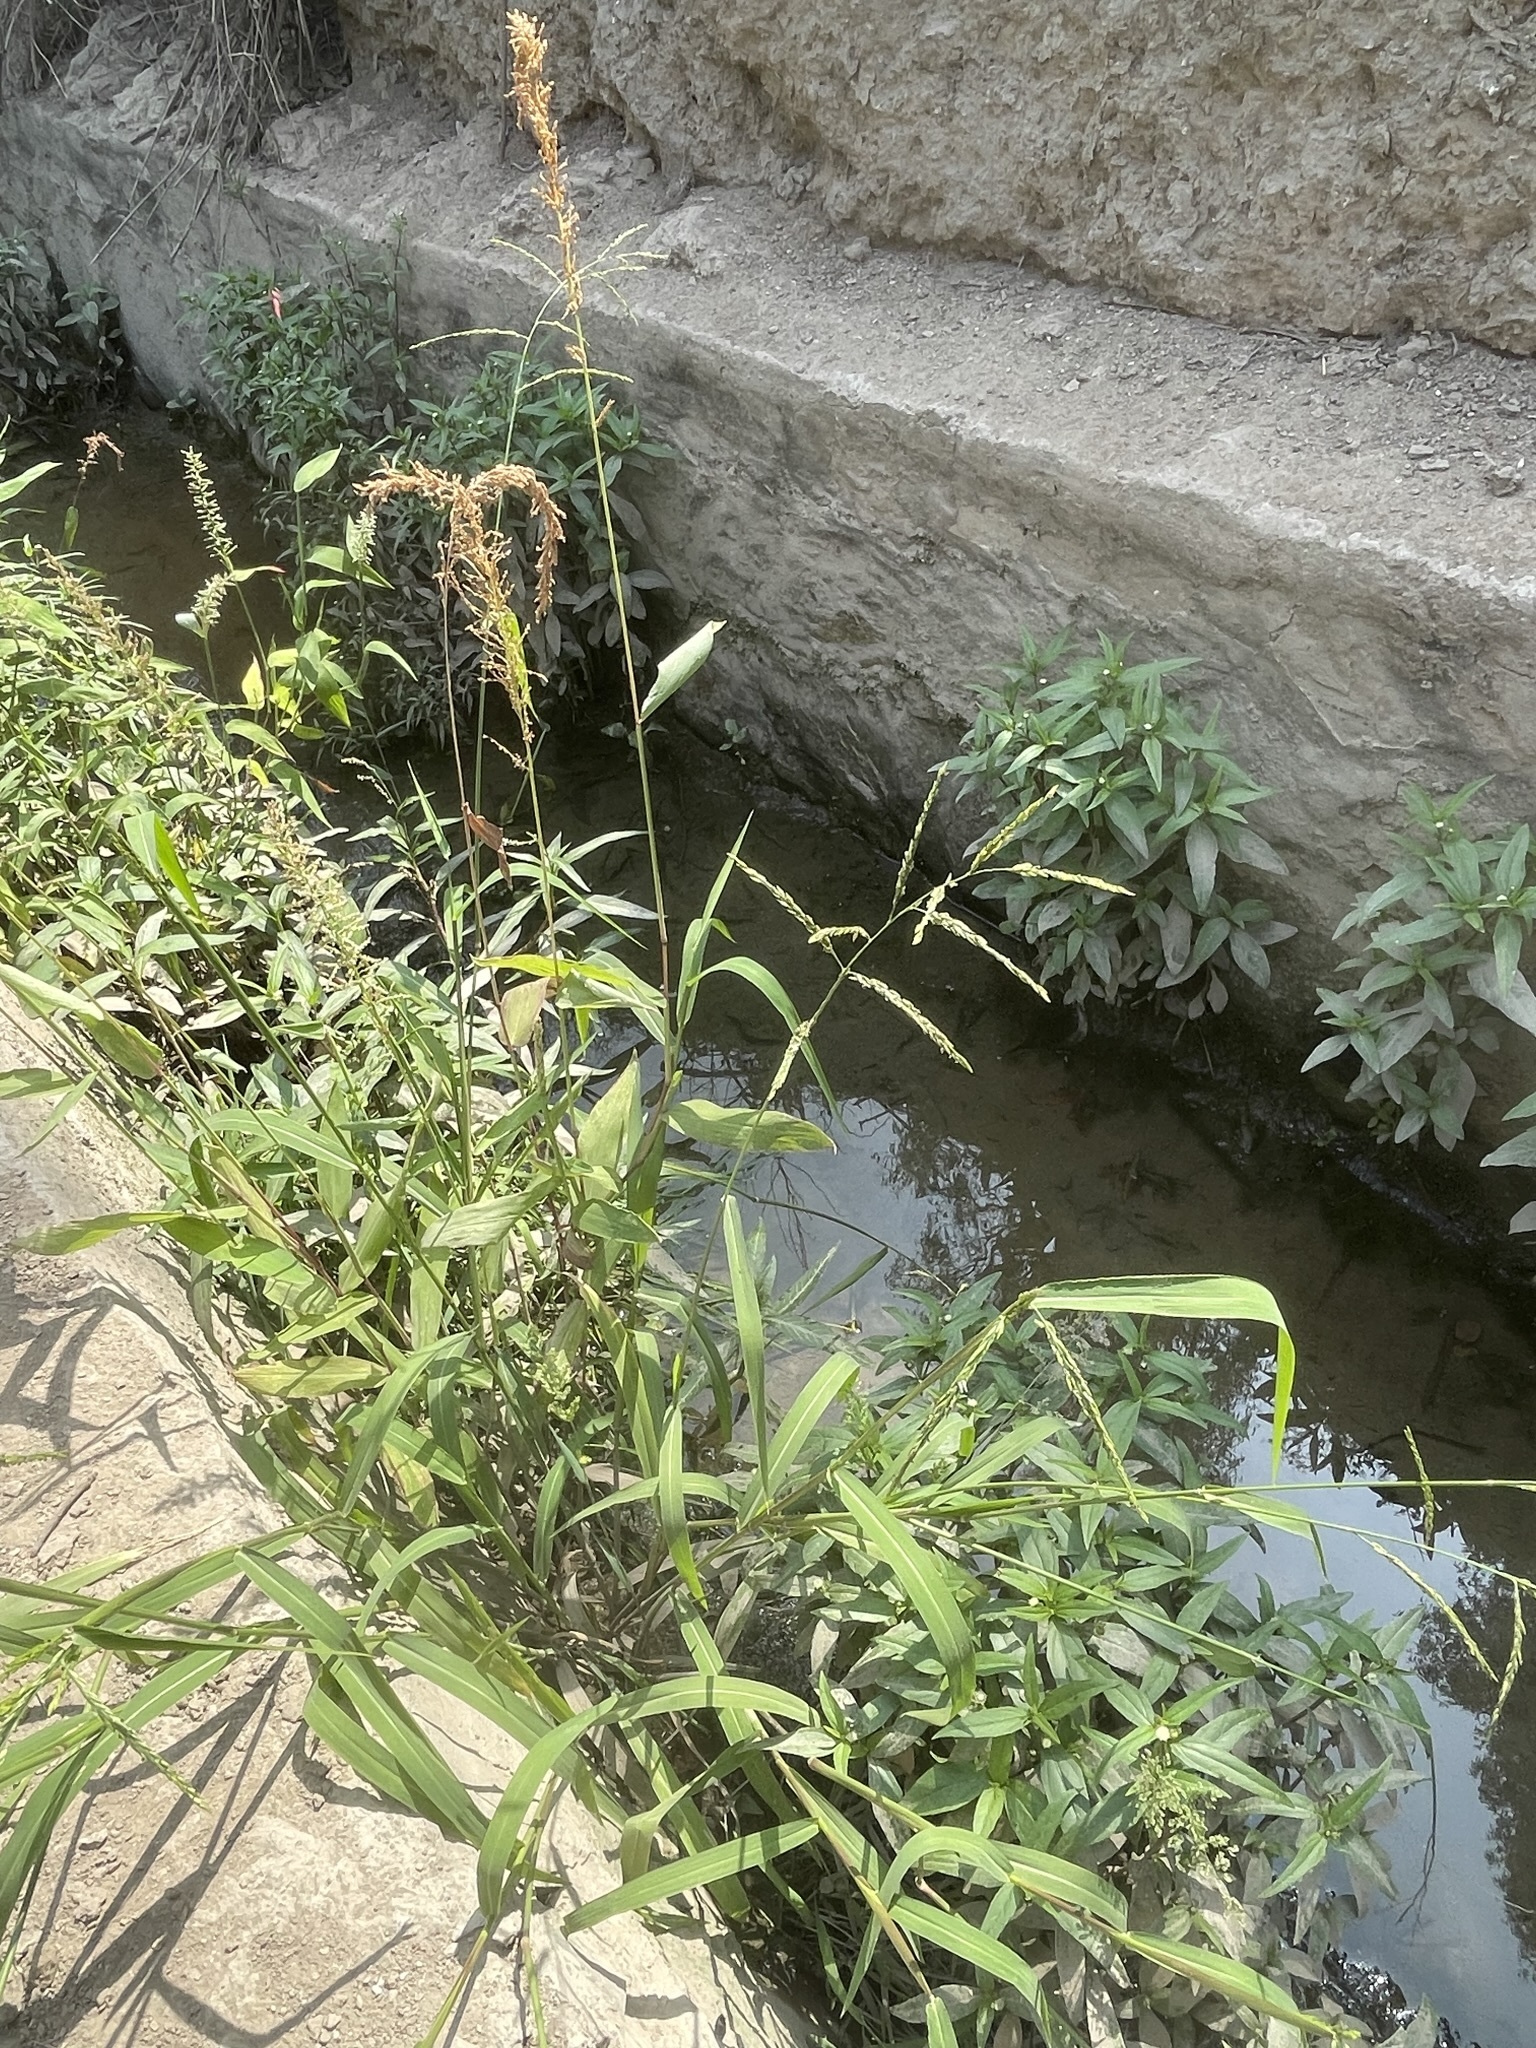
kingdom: Plantae
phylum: Tracheophyta
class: Liliopsida
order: Poales
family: Poaceae
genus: Echinochloa
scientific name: Echinochloa crus-galli
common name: Cockspur
